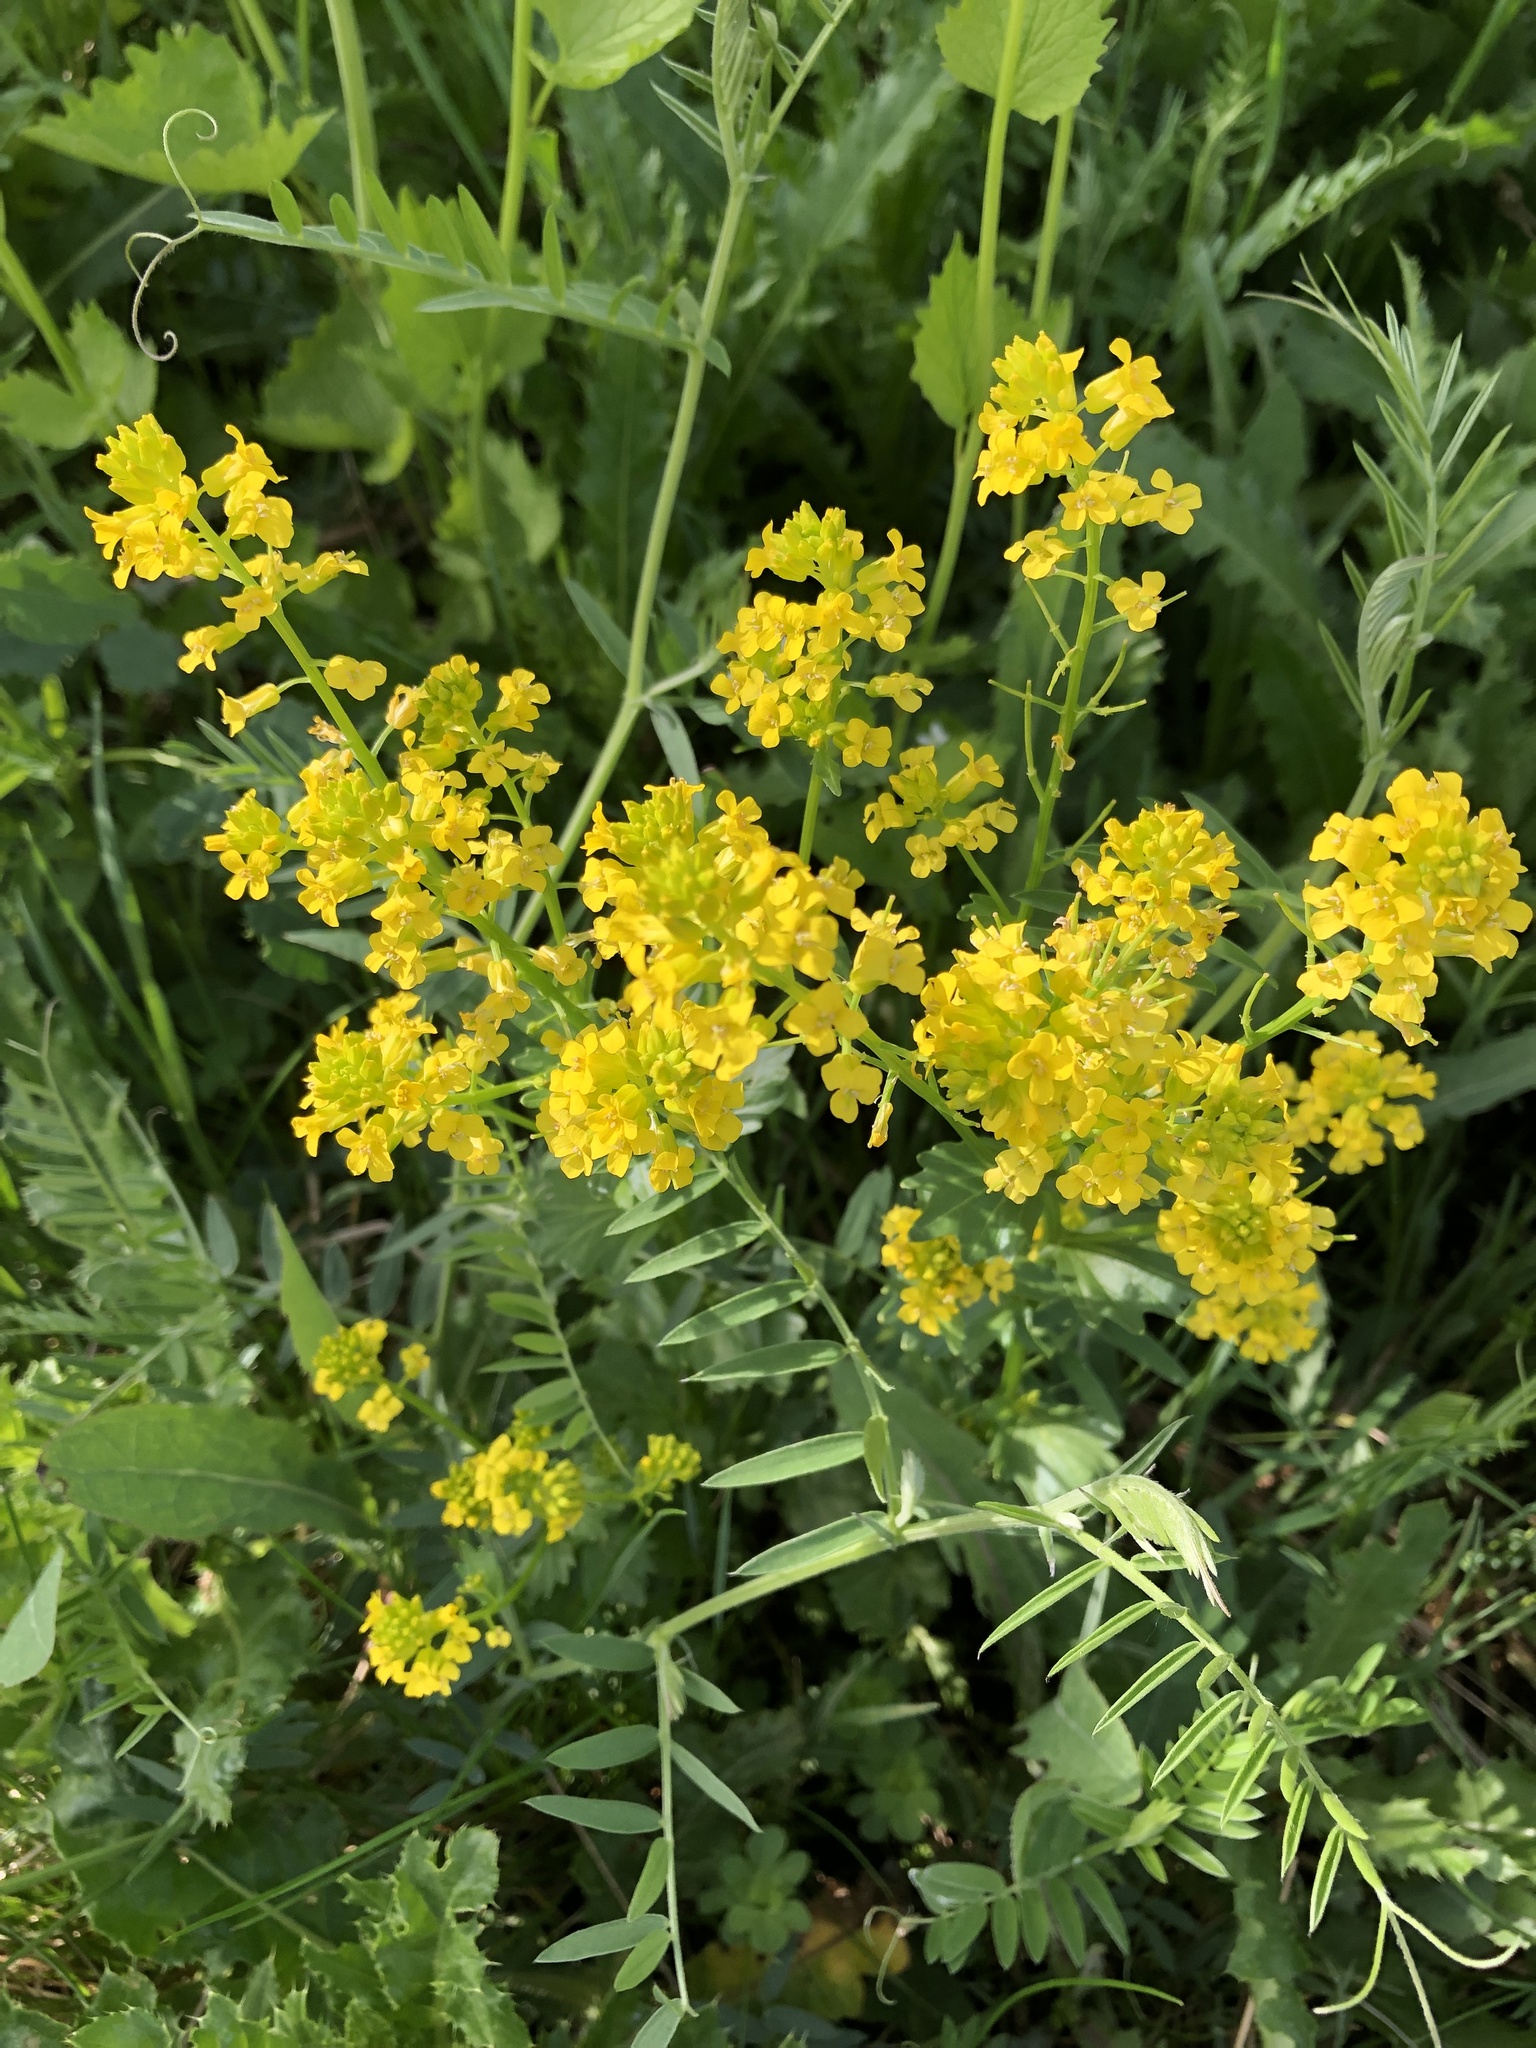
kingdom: Plantae
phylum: Tracheophyta
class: Magnoliopsida
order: Brassicales
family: Brassicaceae
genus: Barbarea
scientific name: Barbarea vulgaris
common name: Cressy-greens
